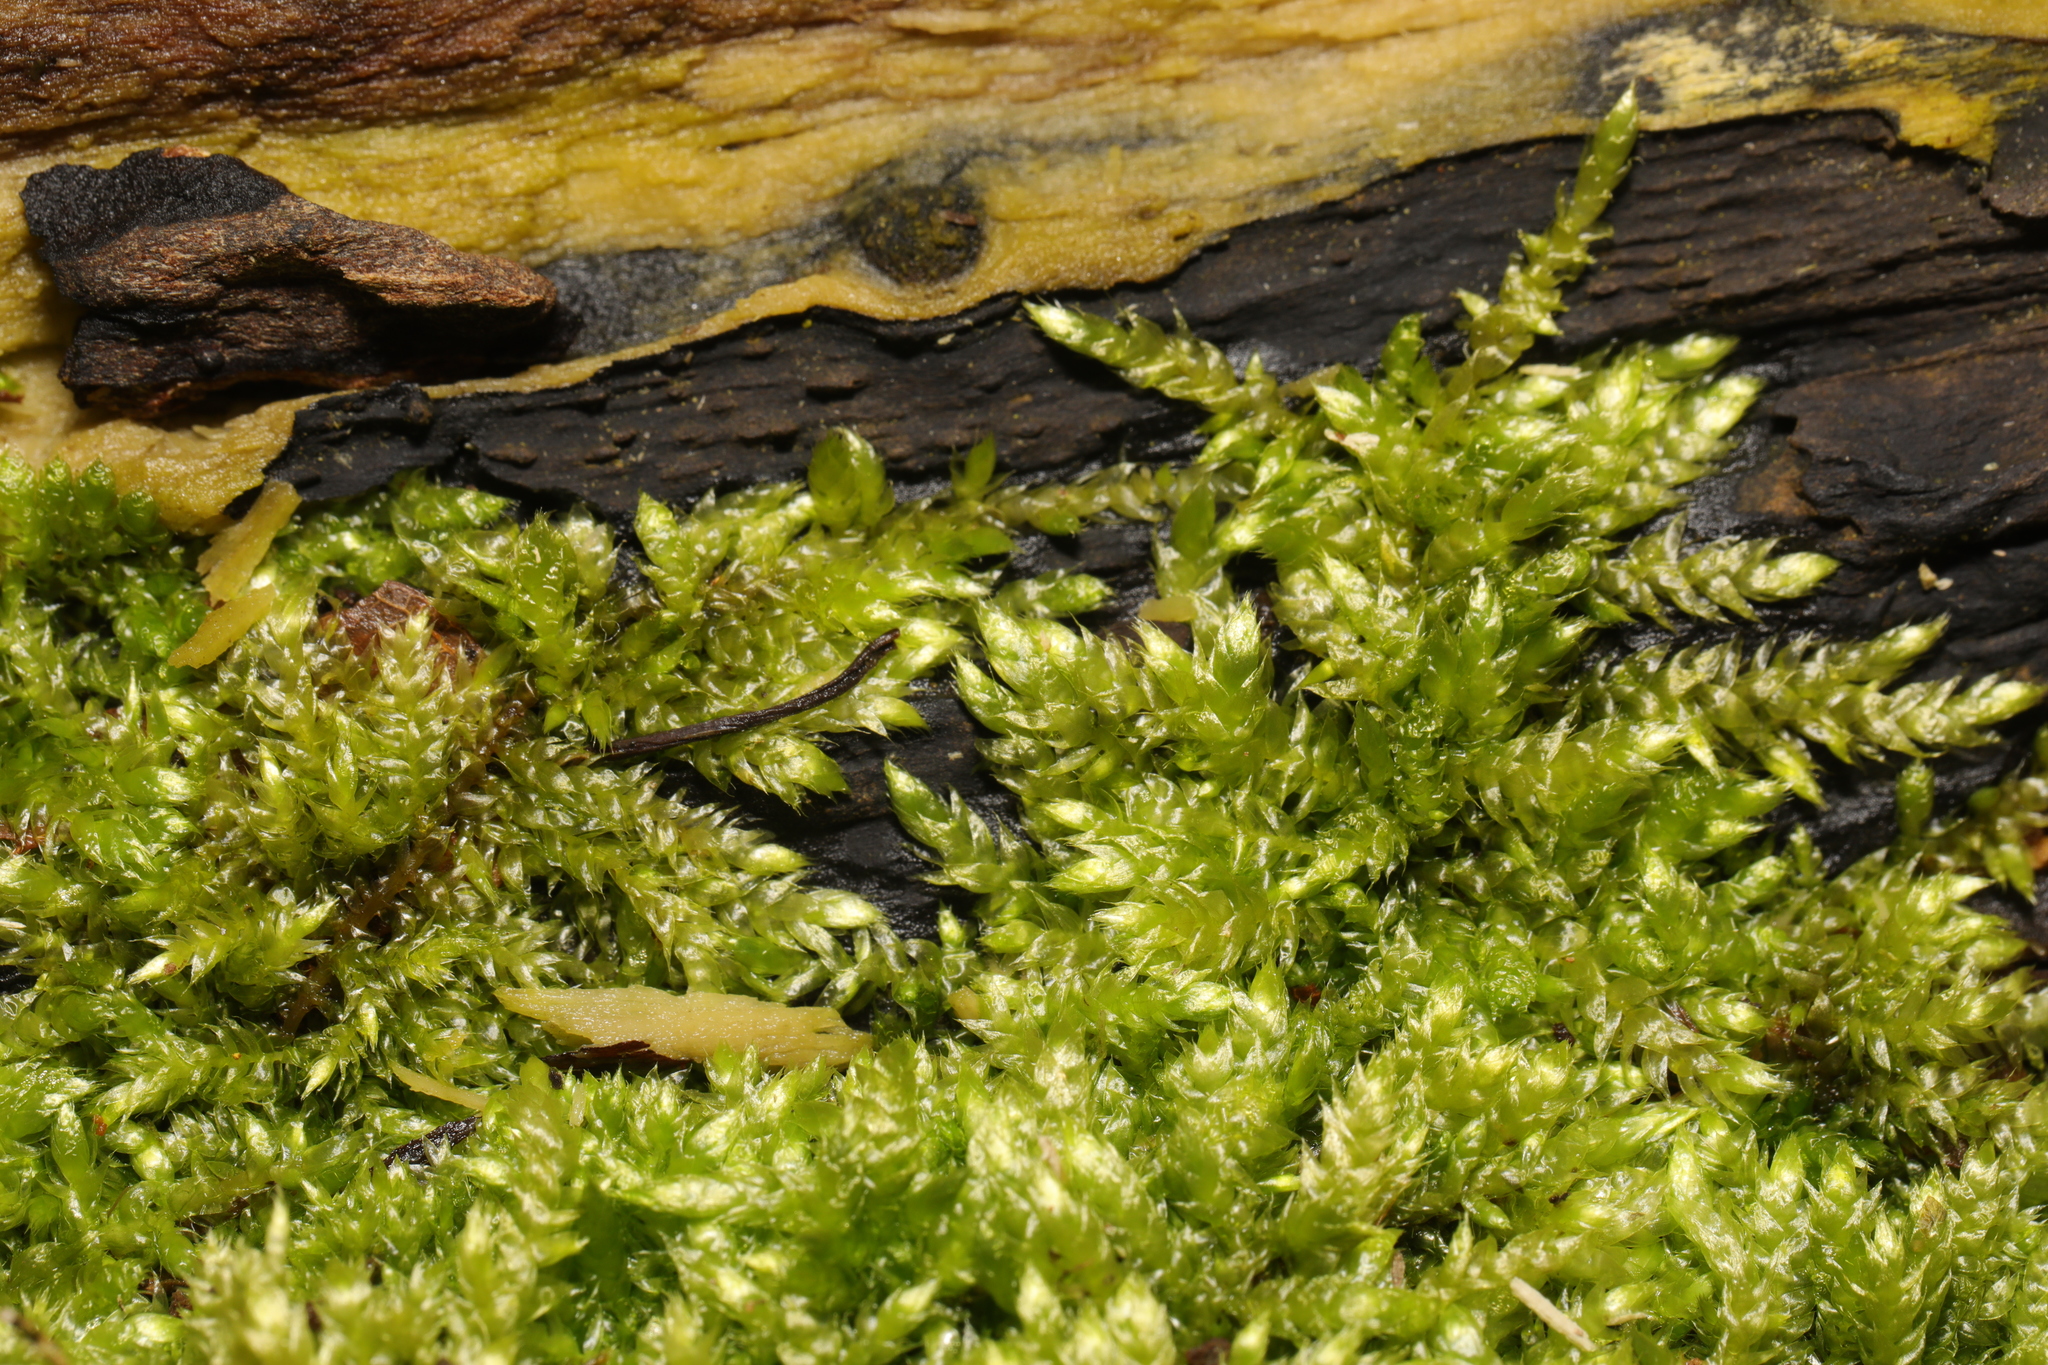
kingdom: Plantae
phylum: Bryophyta
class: Bryopsida
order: Hypnales
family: Hypnaceae
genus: Hypnum
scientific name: Hypnum cupressiforme
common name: Cypress-leaved plait-moss
